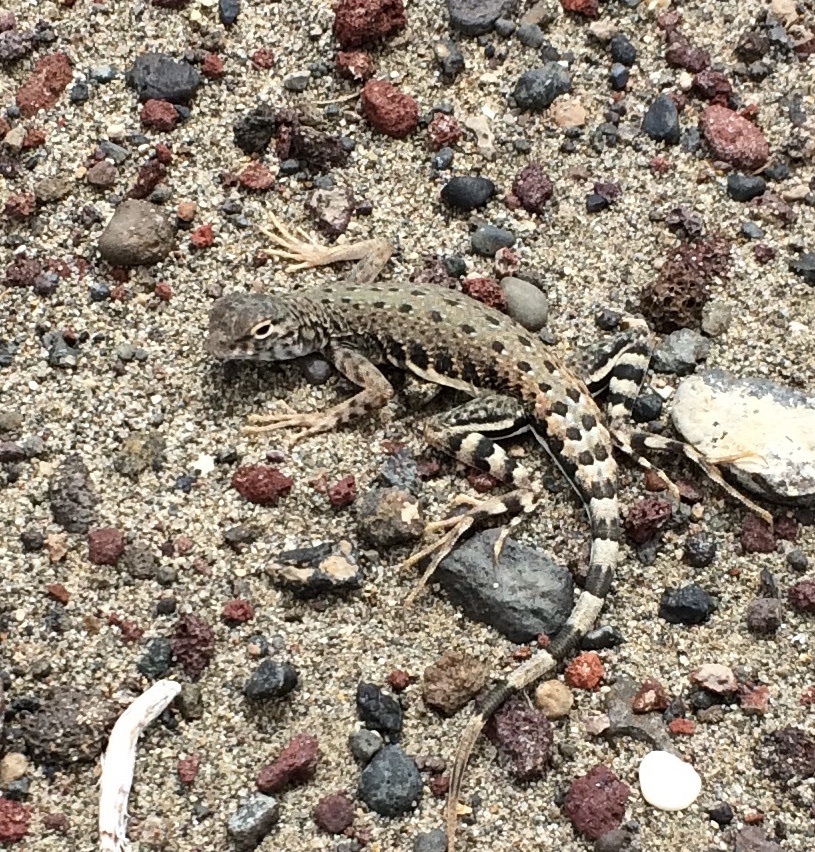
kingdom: Animalia
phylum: Chordata
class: Squamata
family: Phrynosomatidae
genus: Callisaurus
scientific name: Callisaurus draconoides
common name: Zebra-tailed lizard
